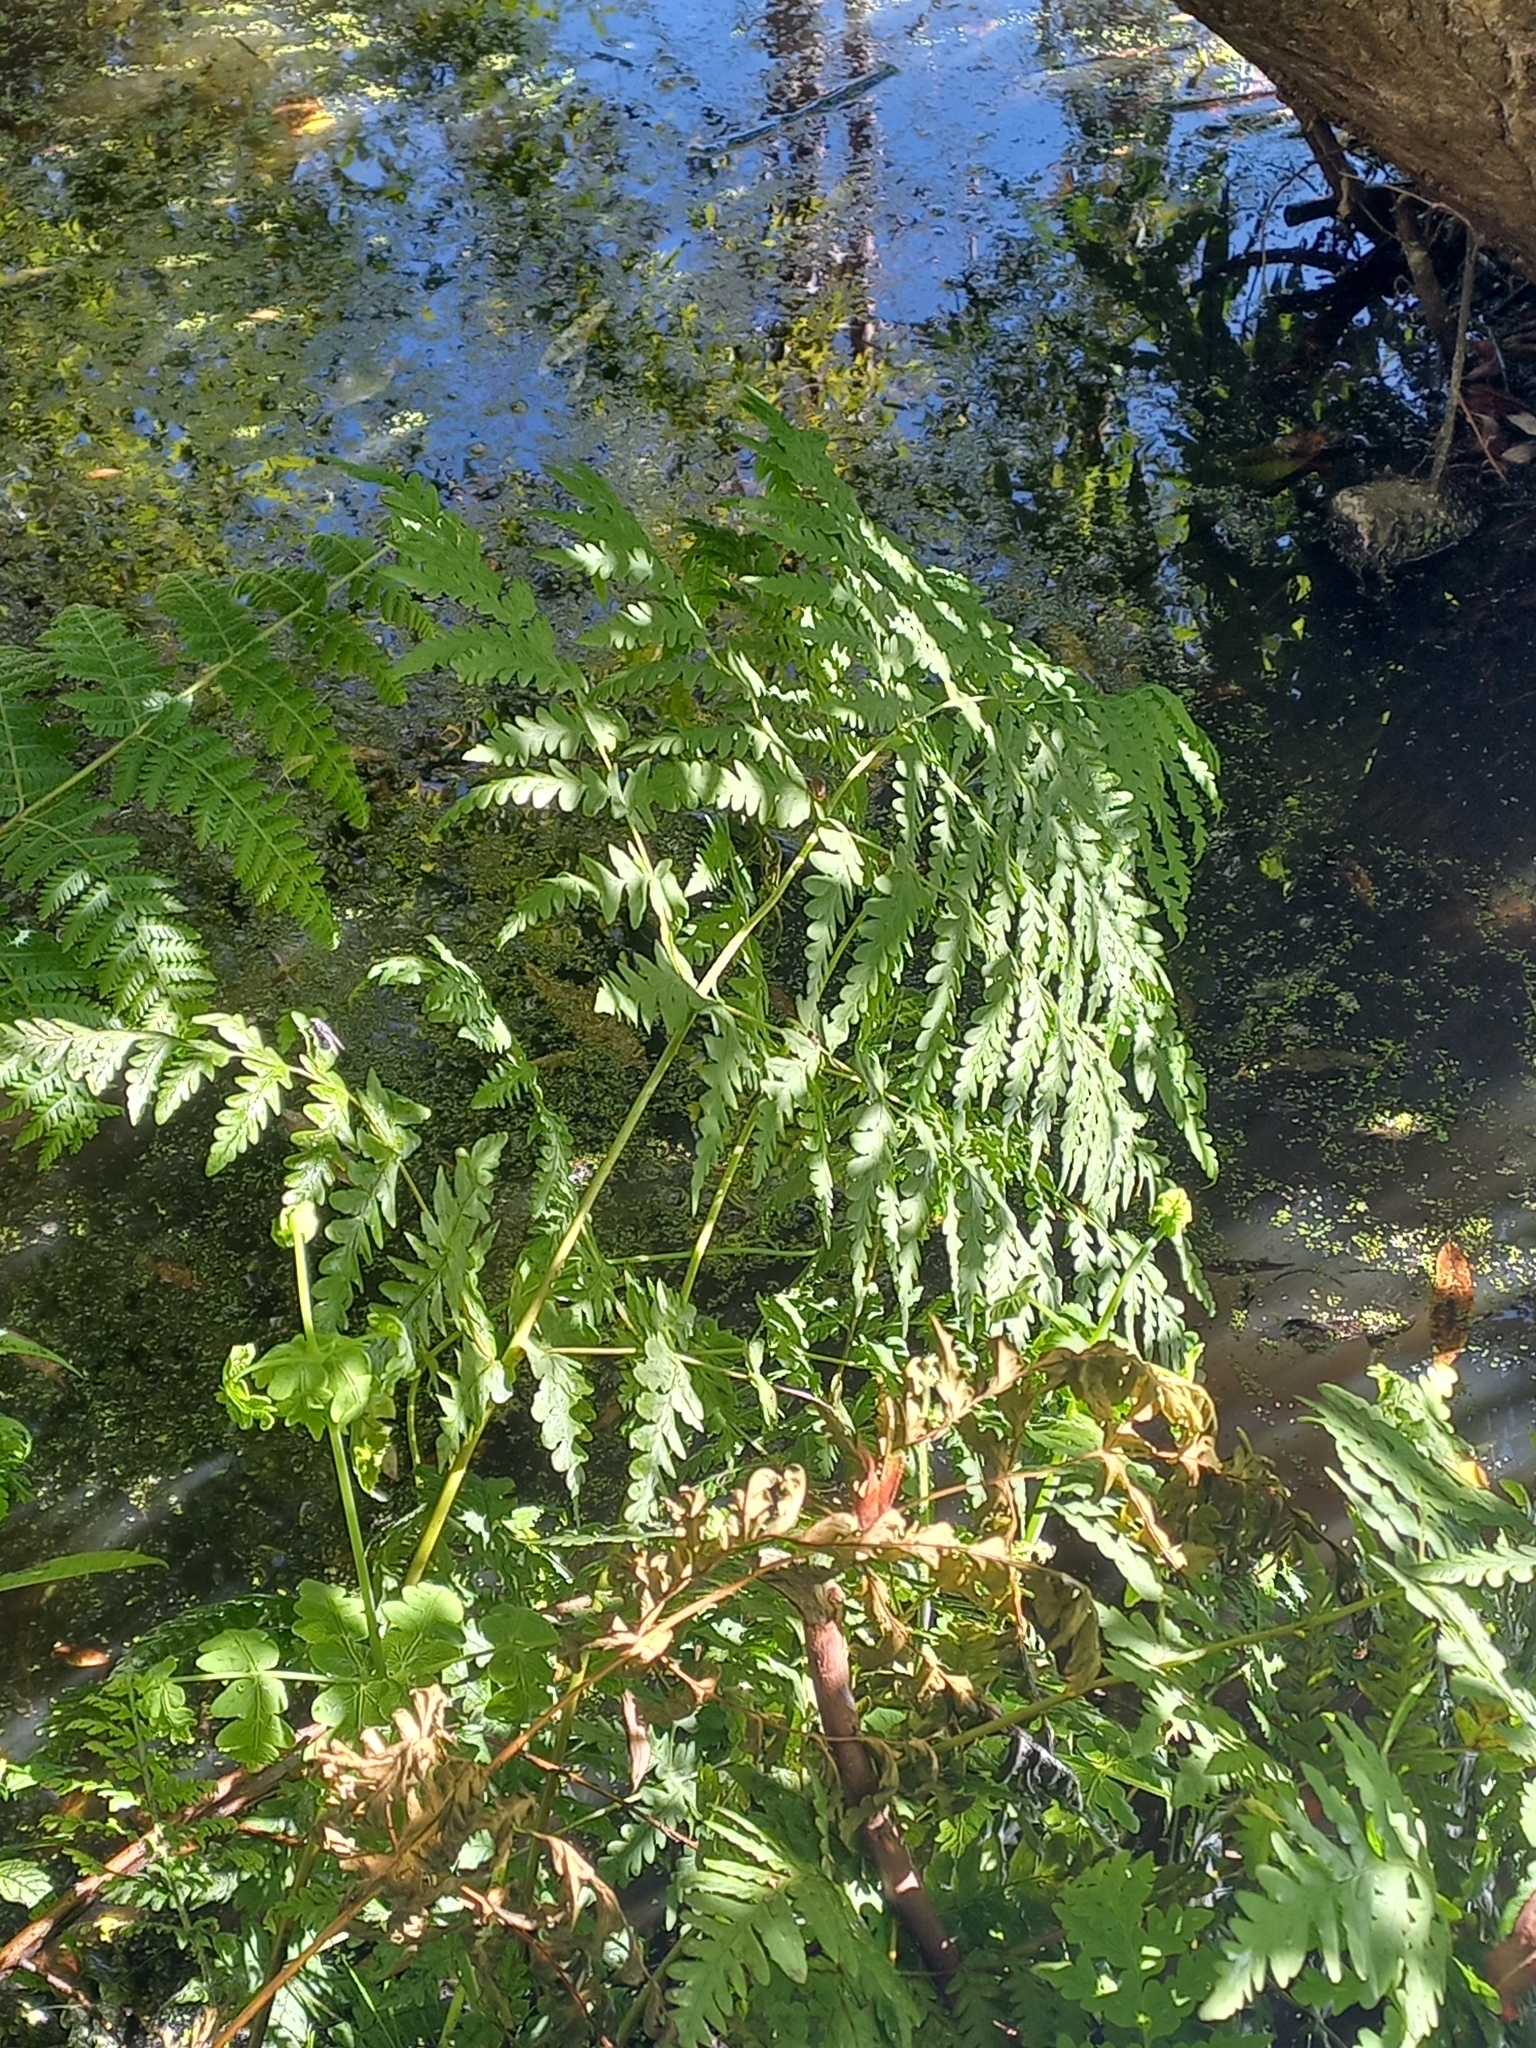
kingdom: Plantae
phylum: Tracheophyta
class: Polypodiopsida
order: Polypodiales
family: Dennstaedtiaceae
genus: Histiopteris
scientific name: Histiopteris incisa
